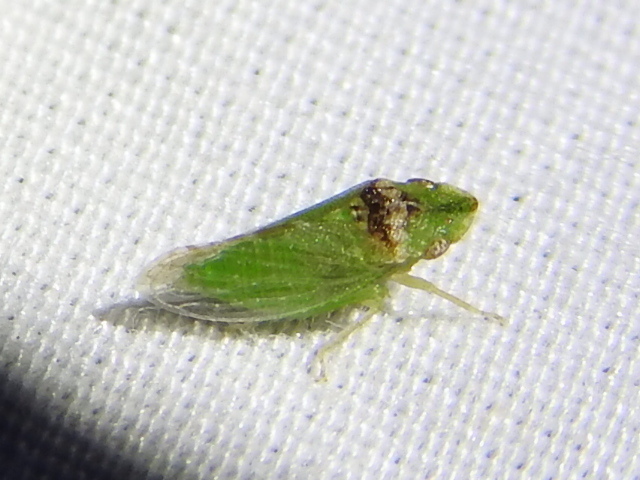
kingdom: Animalia
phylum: Arthropoda
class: Insecta
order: Hemiptera
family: Cicadellidae
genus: Xerophloea
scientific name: Xerophloea viridis
